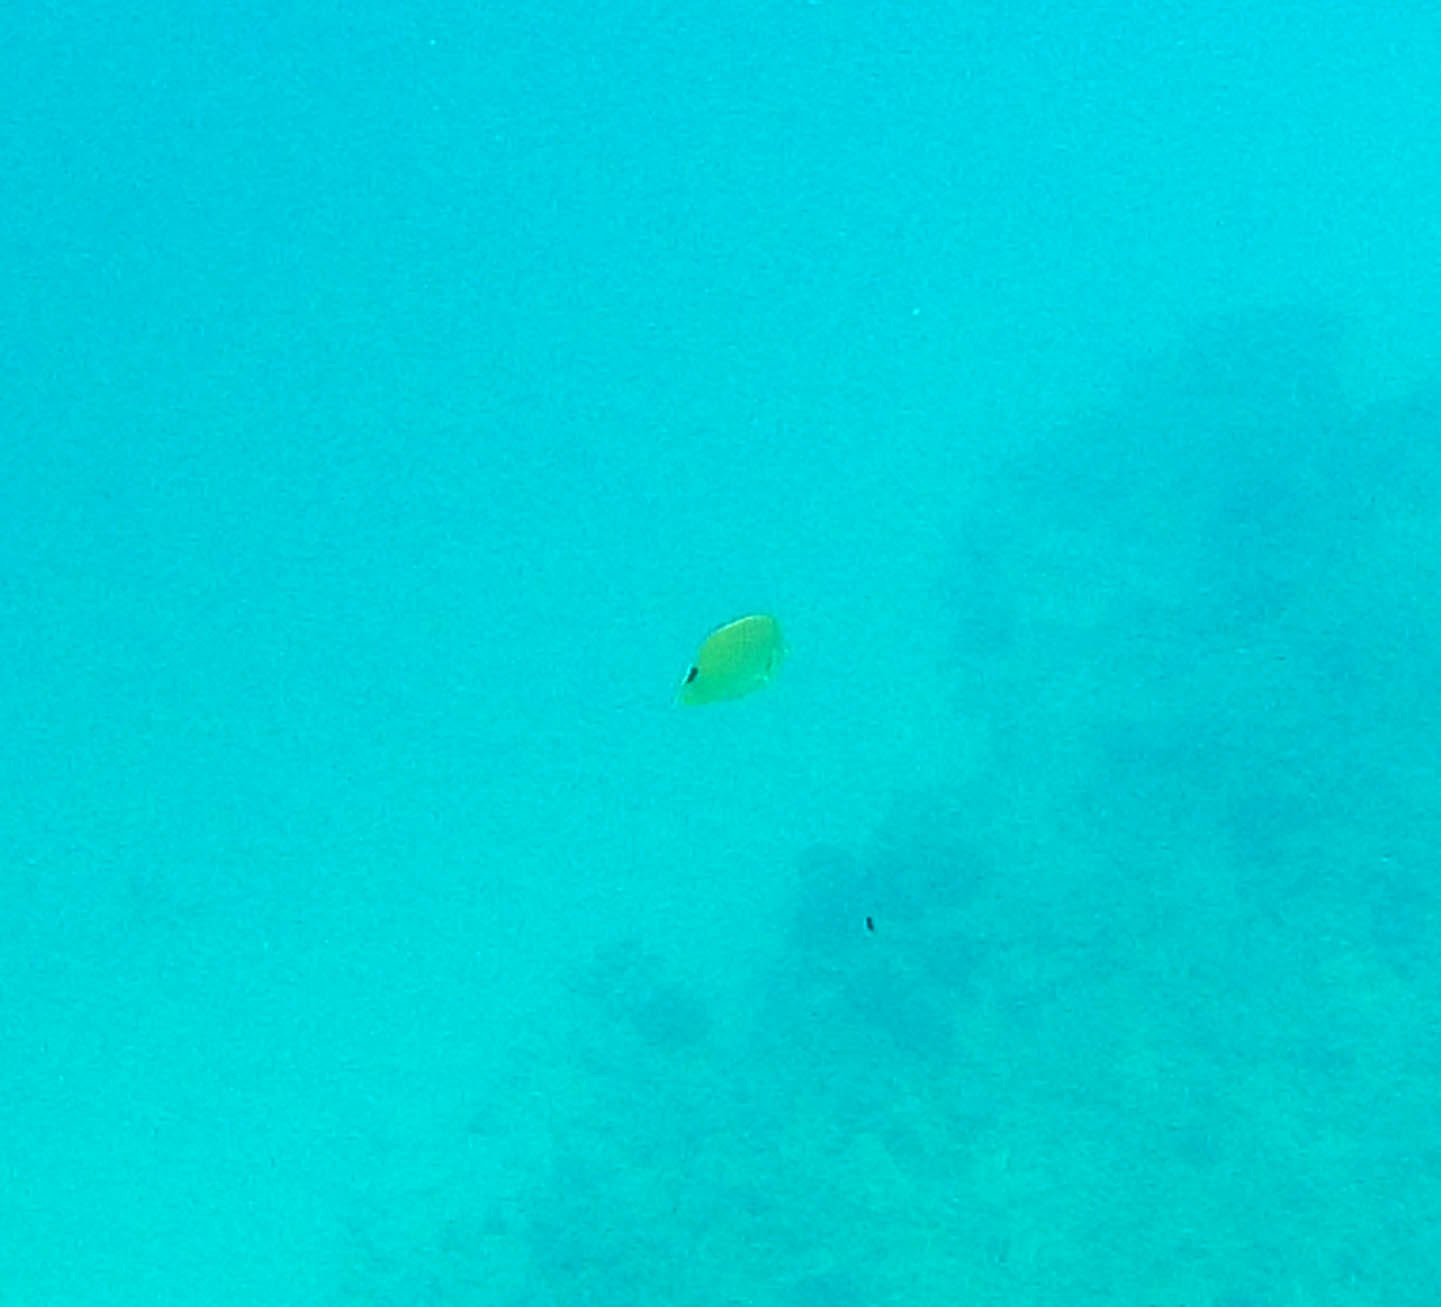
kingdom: Animalia
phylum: Chordata
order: Perciformes
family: Chaetodontidae
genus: Chaetodon
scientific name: Chaetodon miliaris
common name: Lemon butterflyfish
